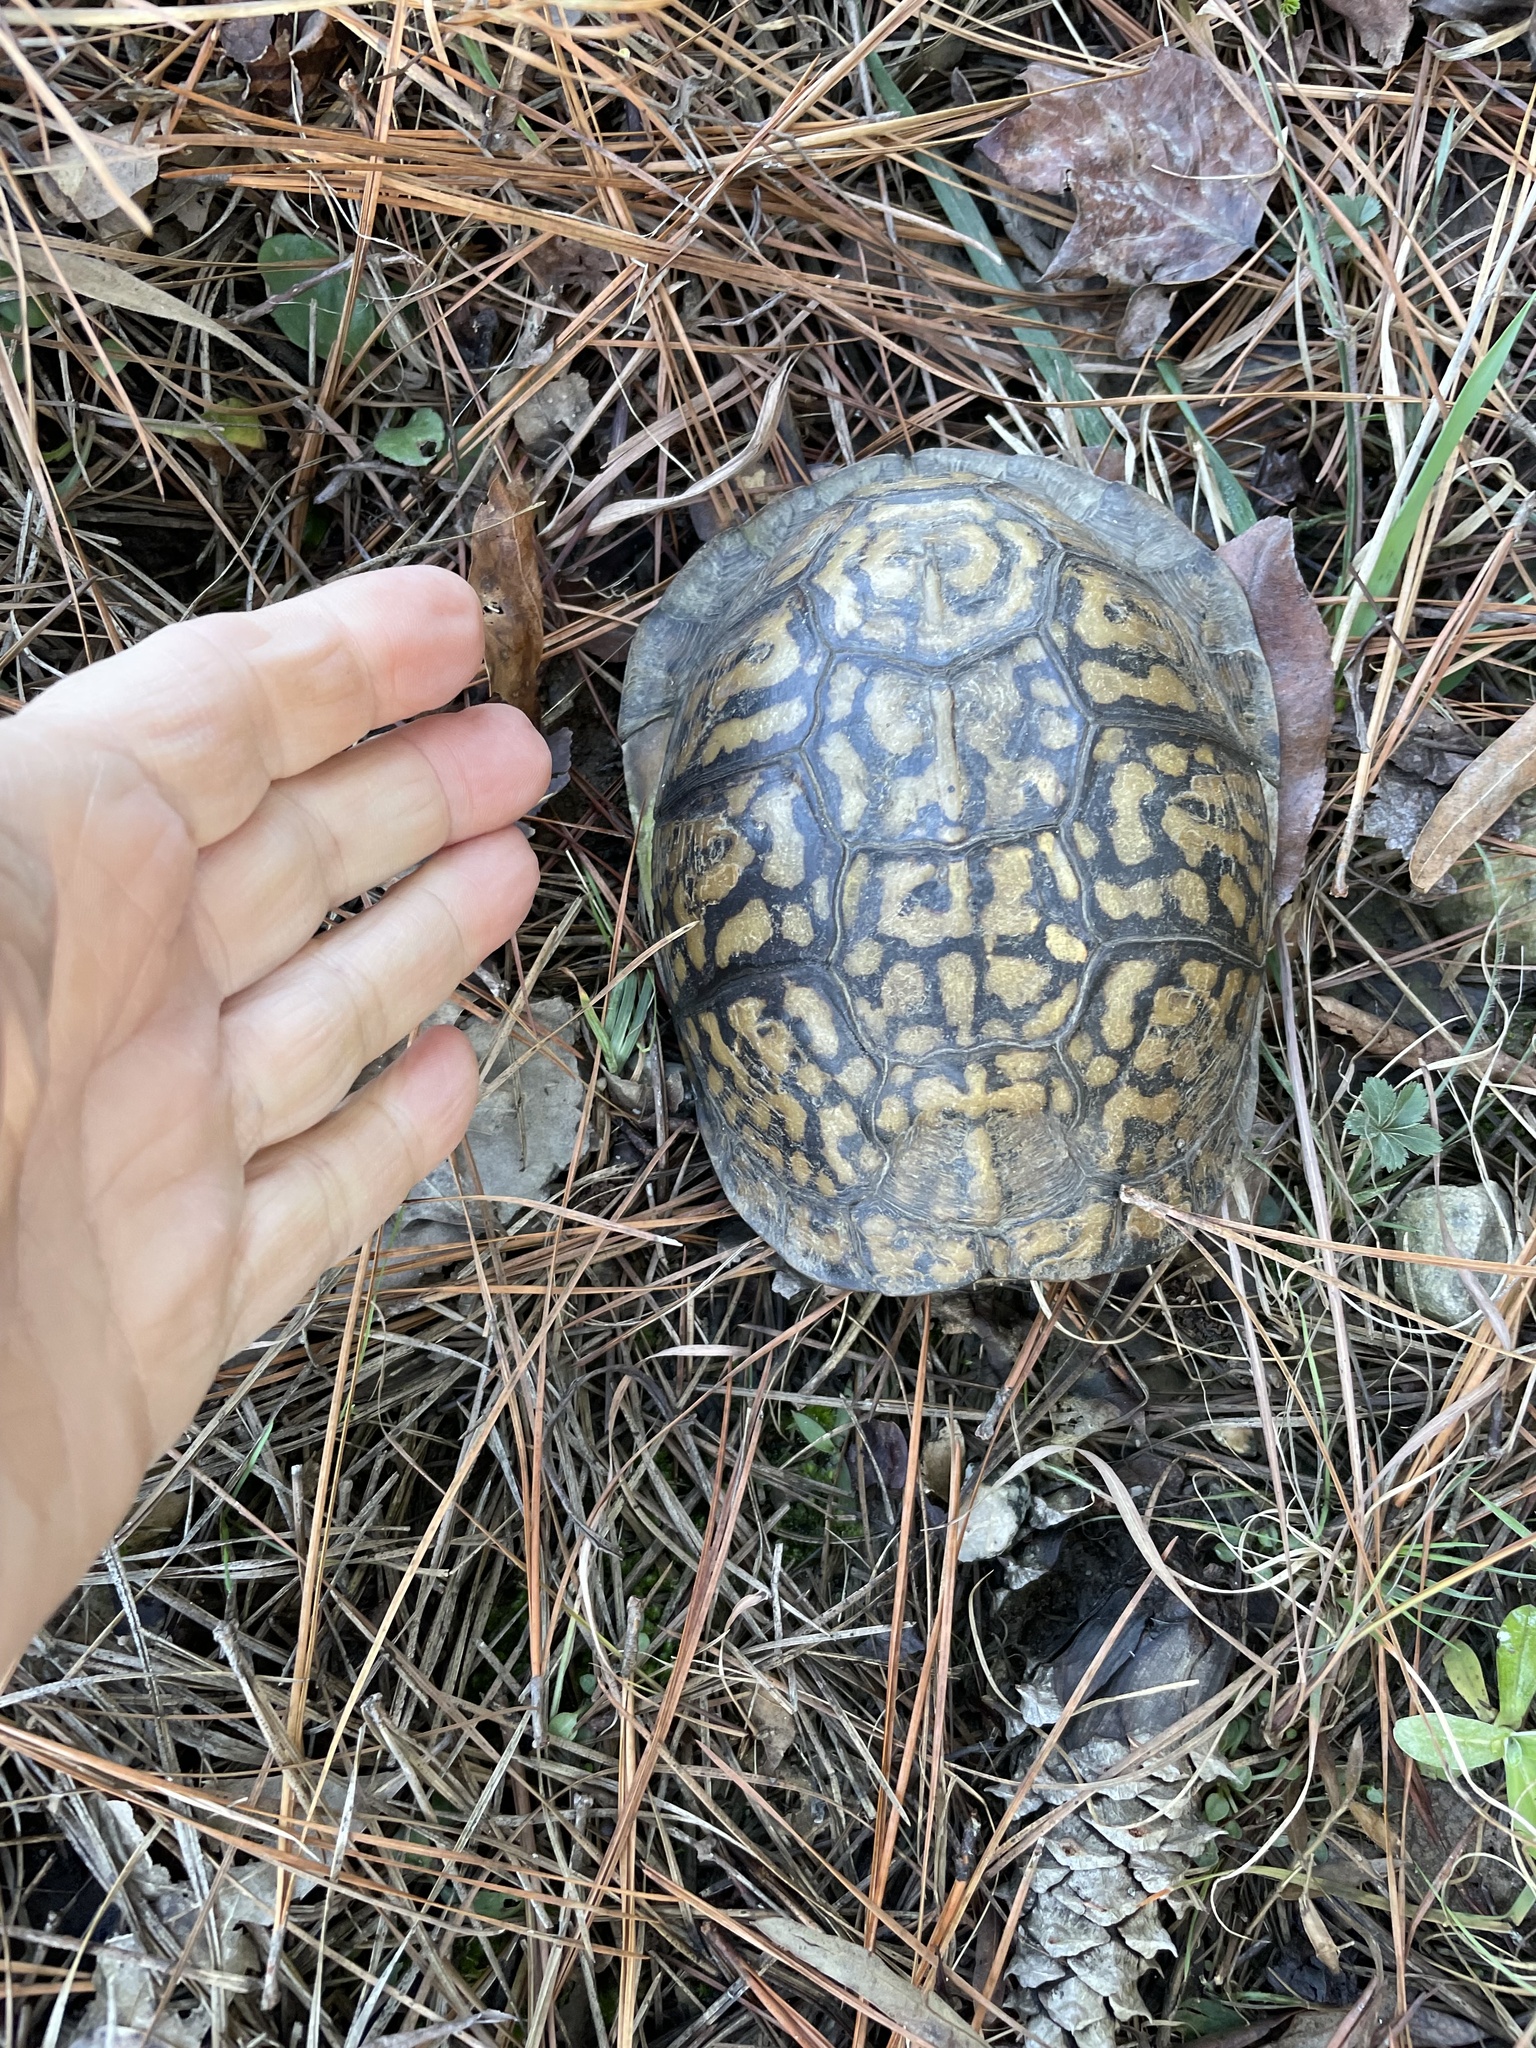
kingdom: Animalia
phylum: Chordata
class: Testudines
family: Emydidae
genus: Terrapene
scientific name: Terrapene carolina
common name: Common box turtle
